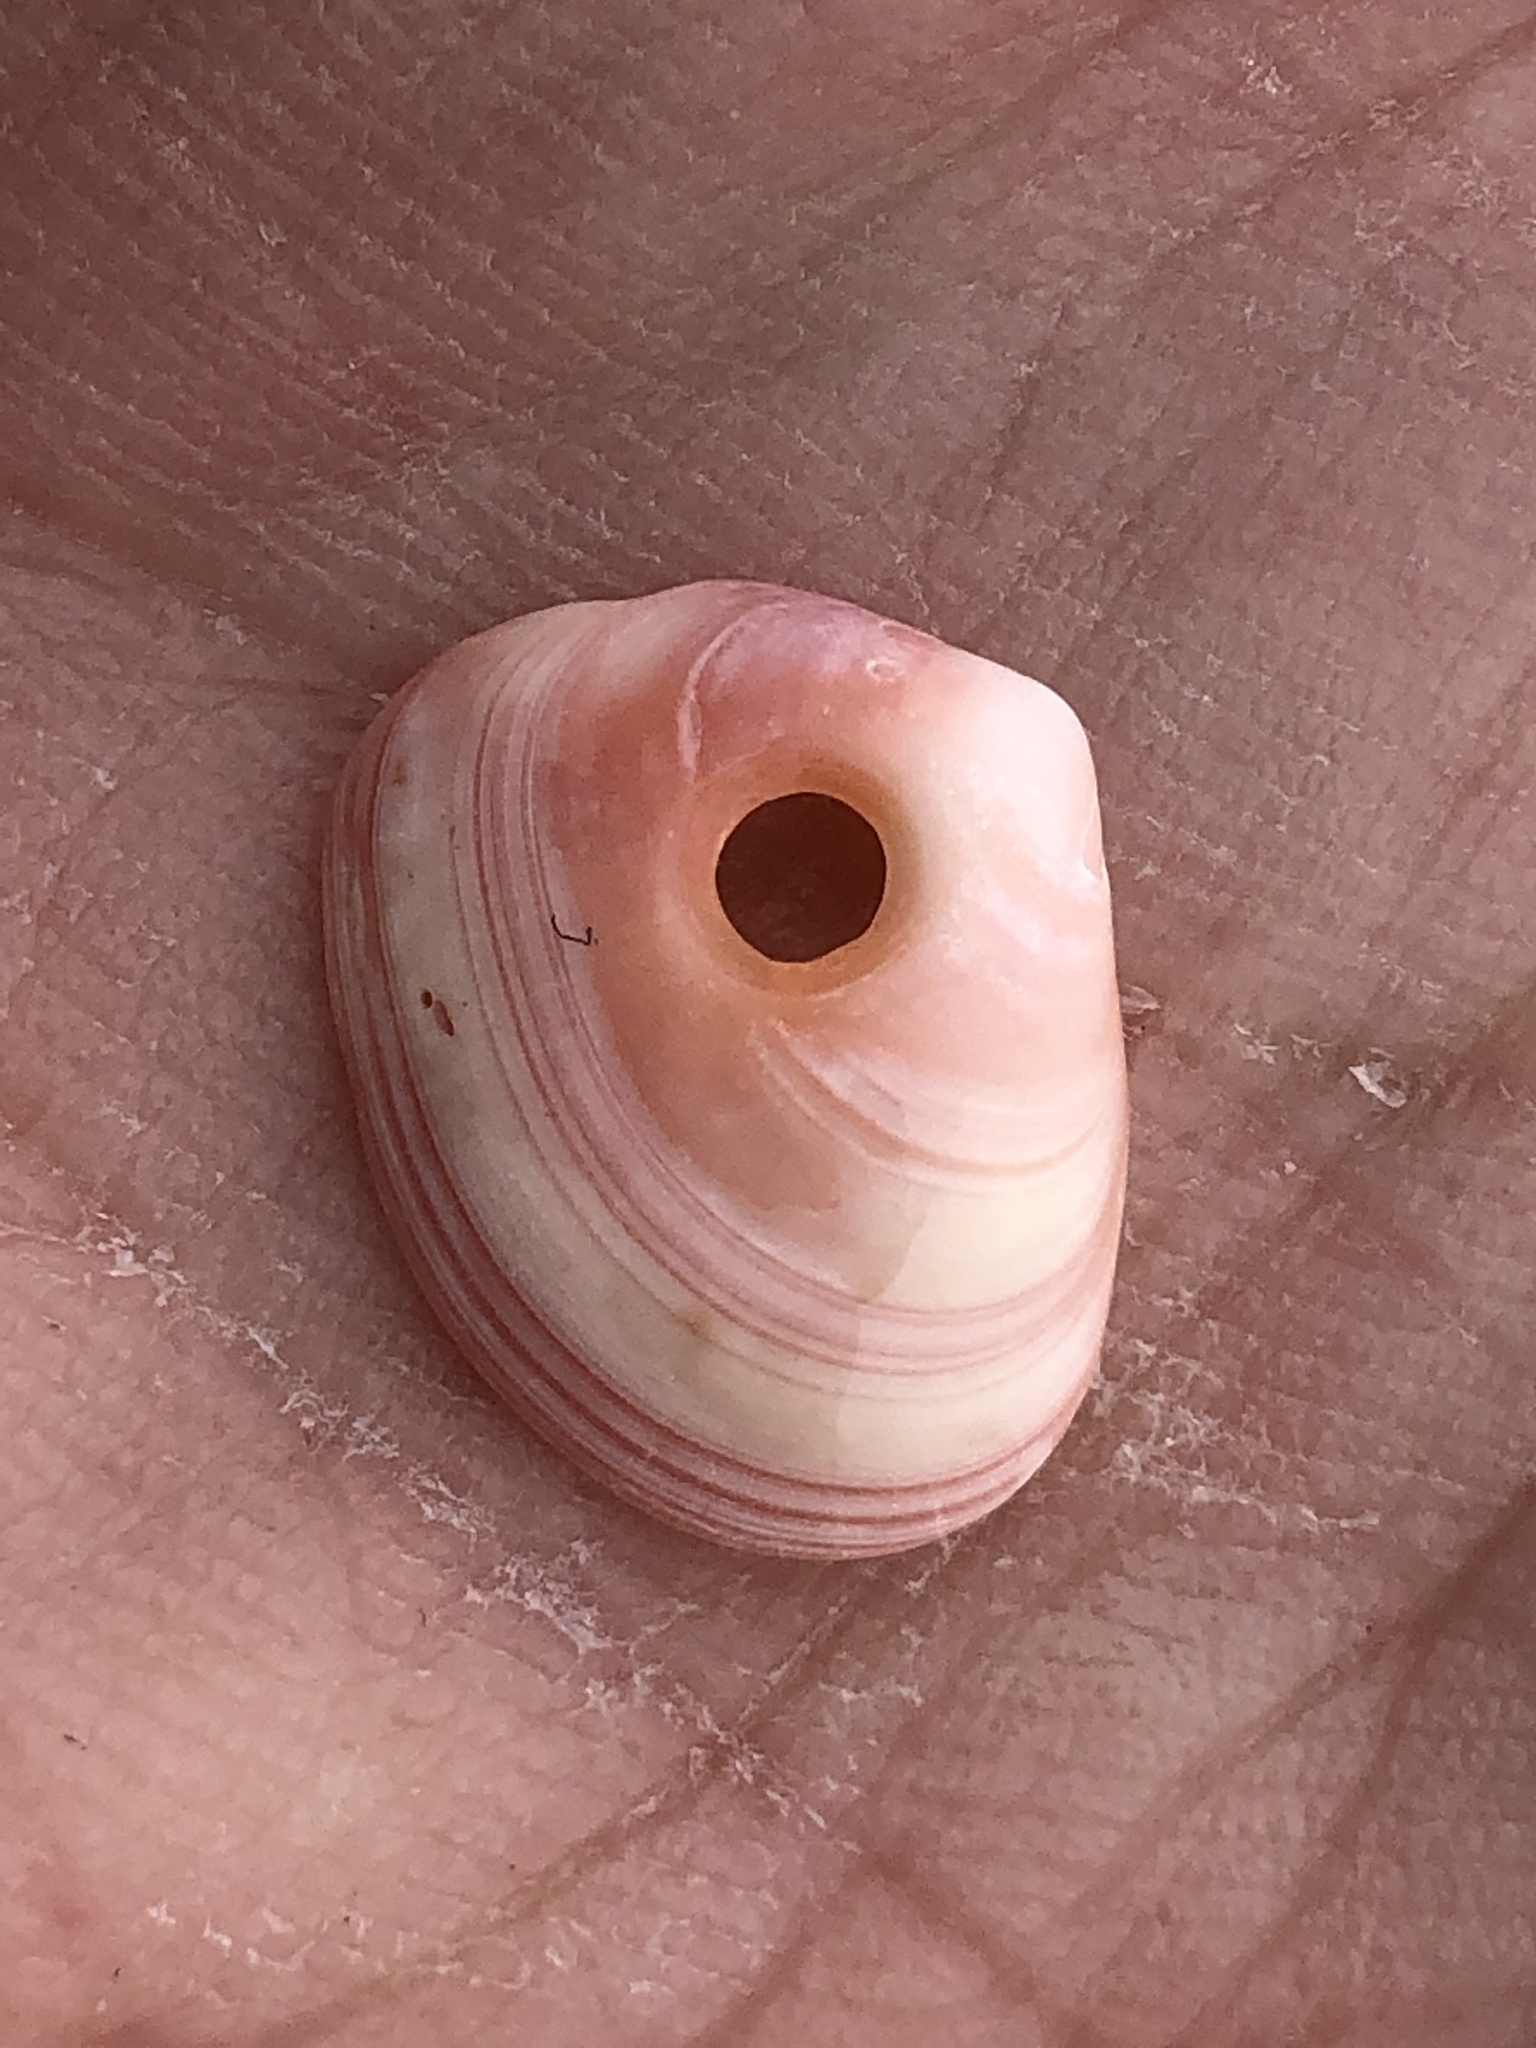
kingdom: Animalia
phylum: Mollusca
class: Bivalvia
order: Cardiida
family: Tellinidae
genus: Tellina
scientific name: Tellina nuculoides
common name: Salmon tellin
